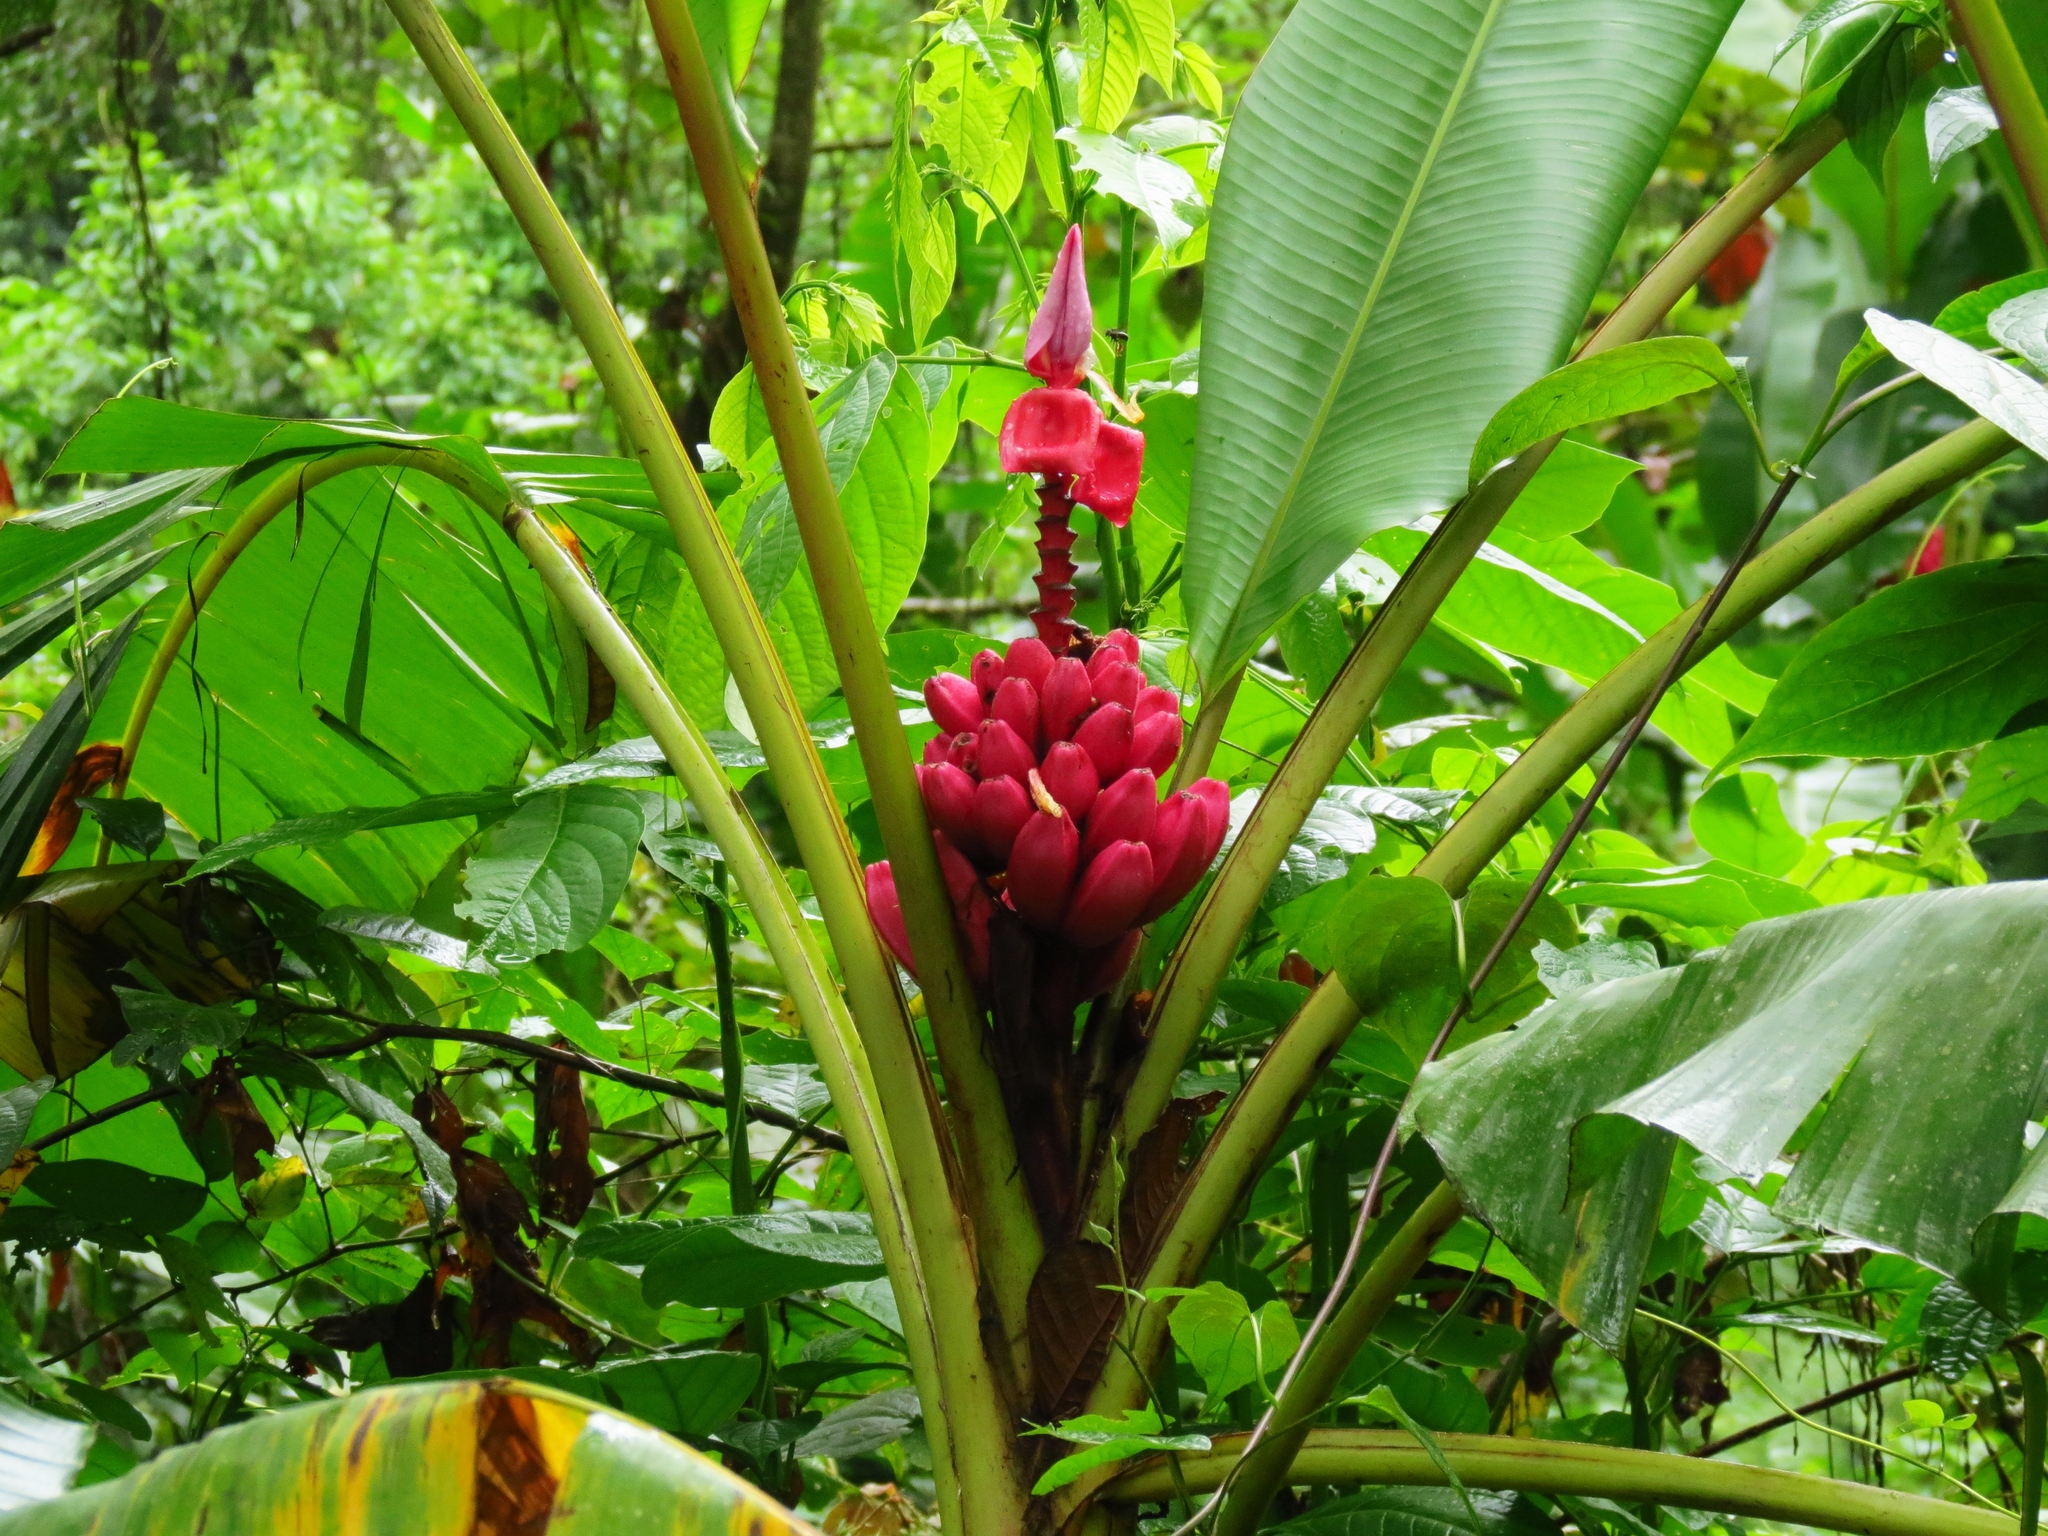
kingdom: Plantae
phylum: Tracheophyta
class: Liliopsida
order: Zingiberales
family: Musaceae
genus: Musa
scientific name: Musa velutina
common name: Pink velvet banana
